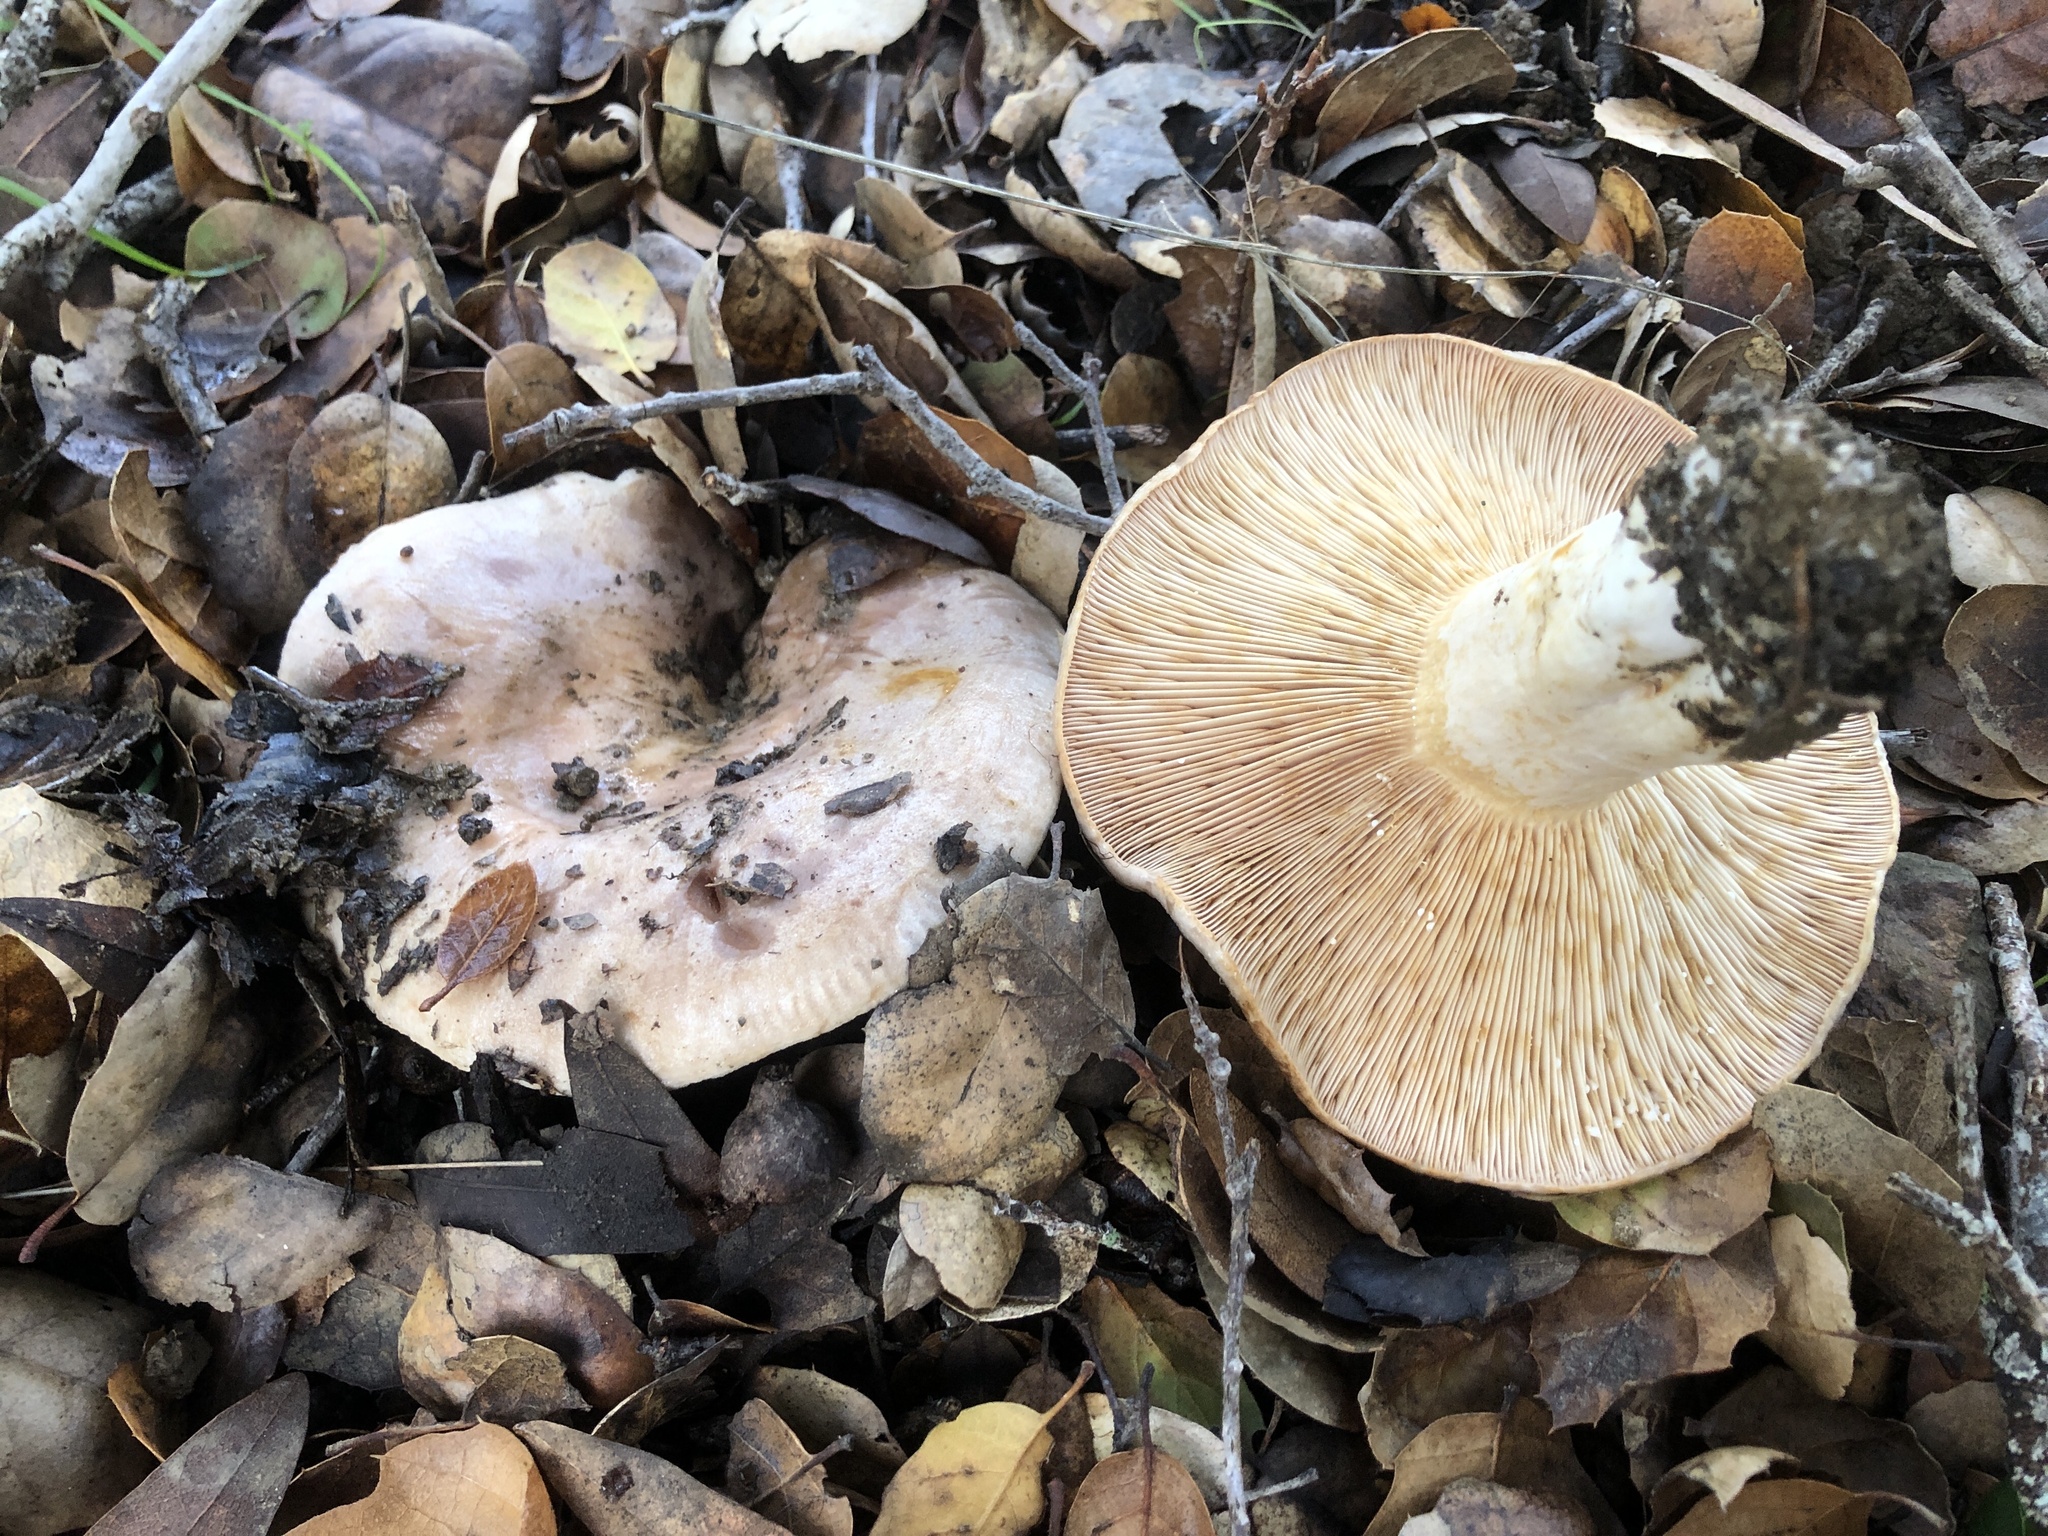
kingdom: Fungi
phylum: Basidiomycota
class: Agaricomycetes
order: Russulales
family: Russulaceae
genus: Lactarius
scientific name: Lactarius argillaceifolius
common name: Clay-gilled milkcap
